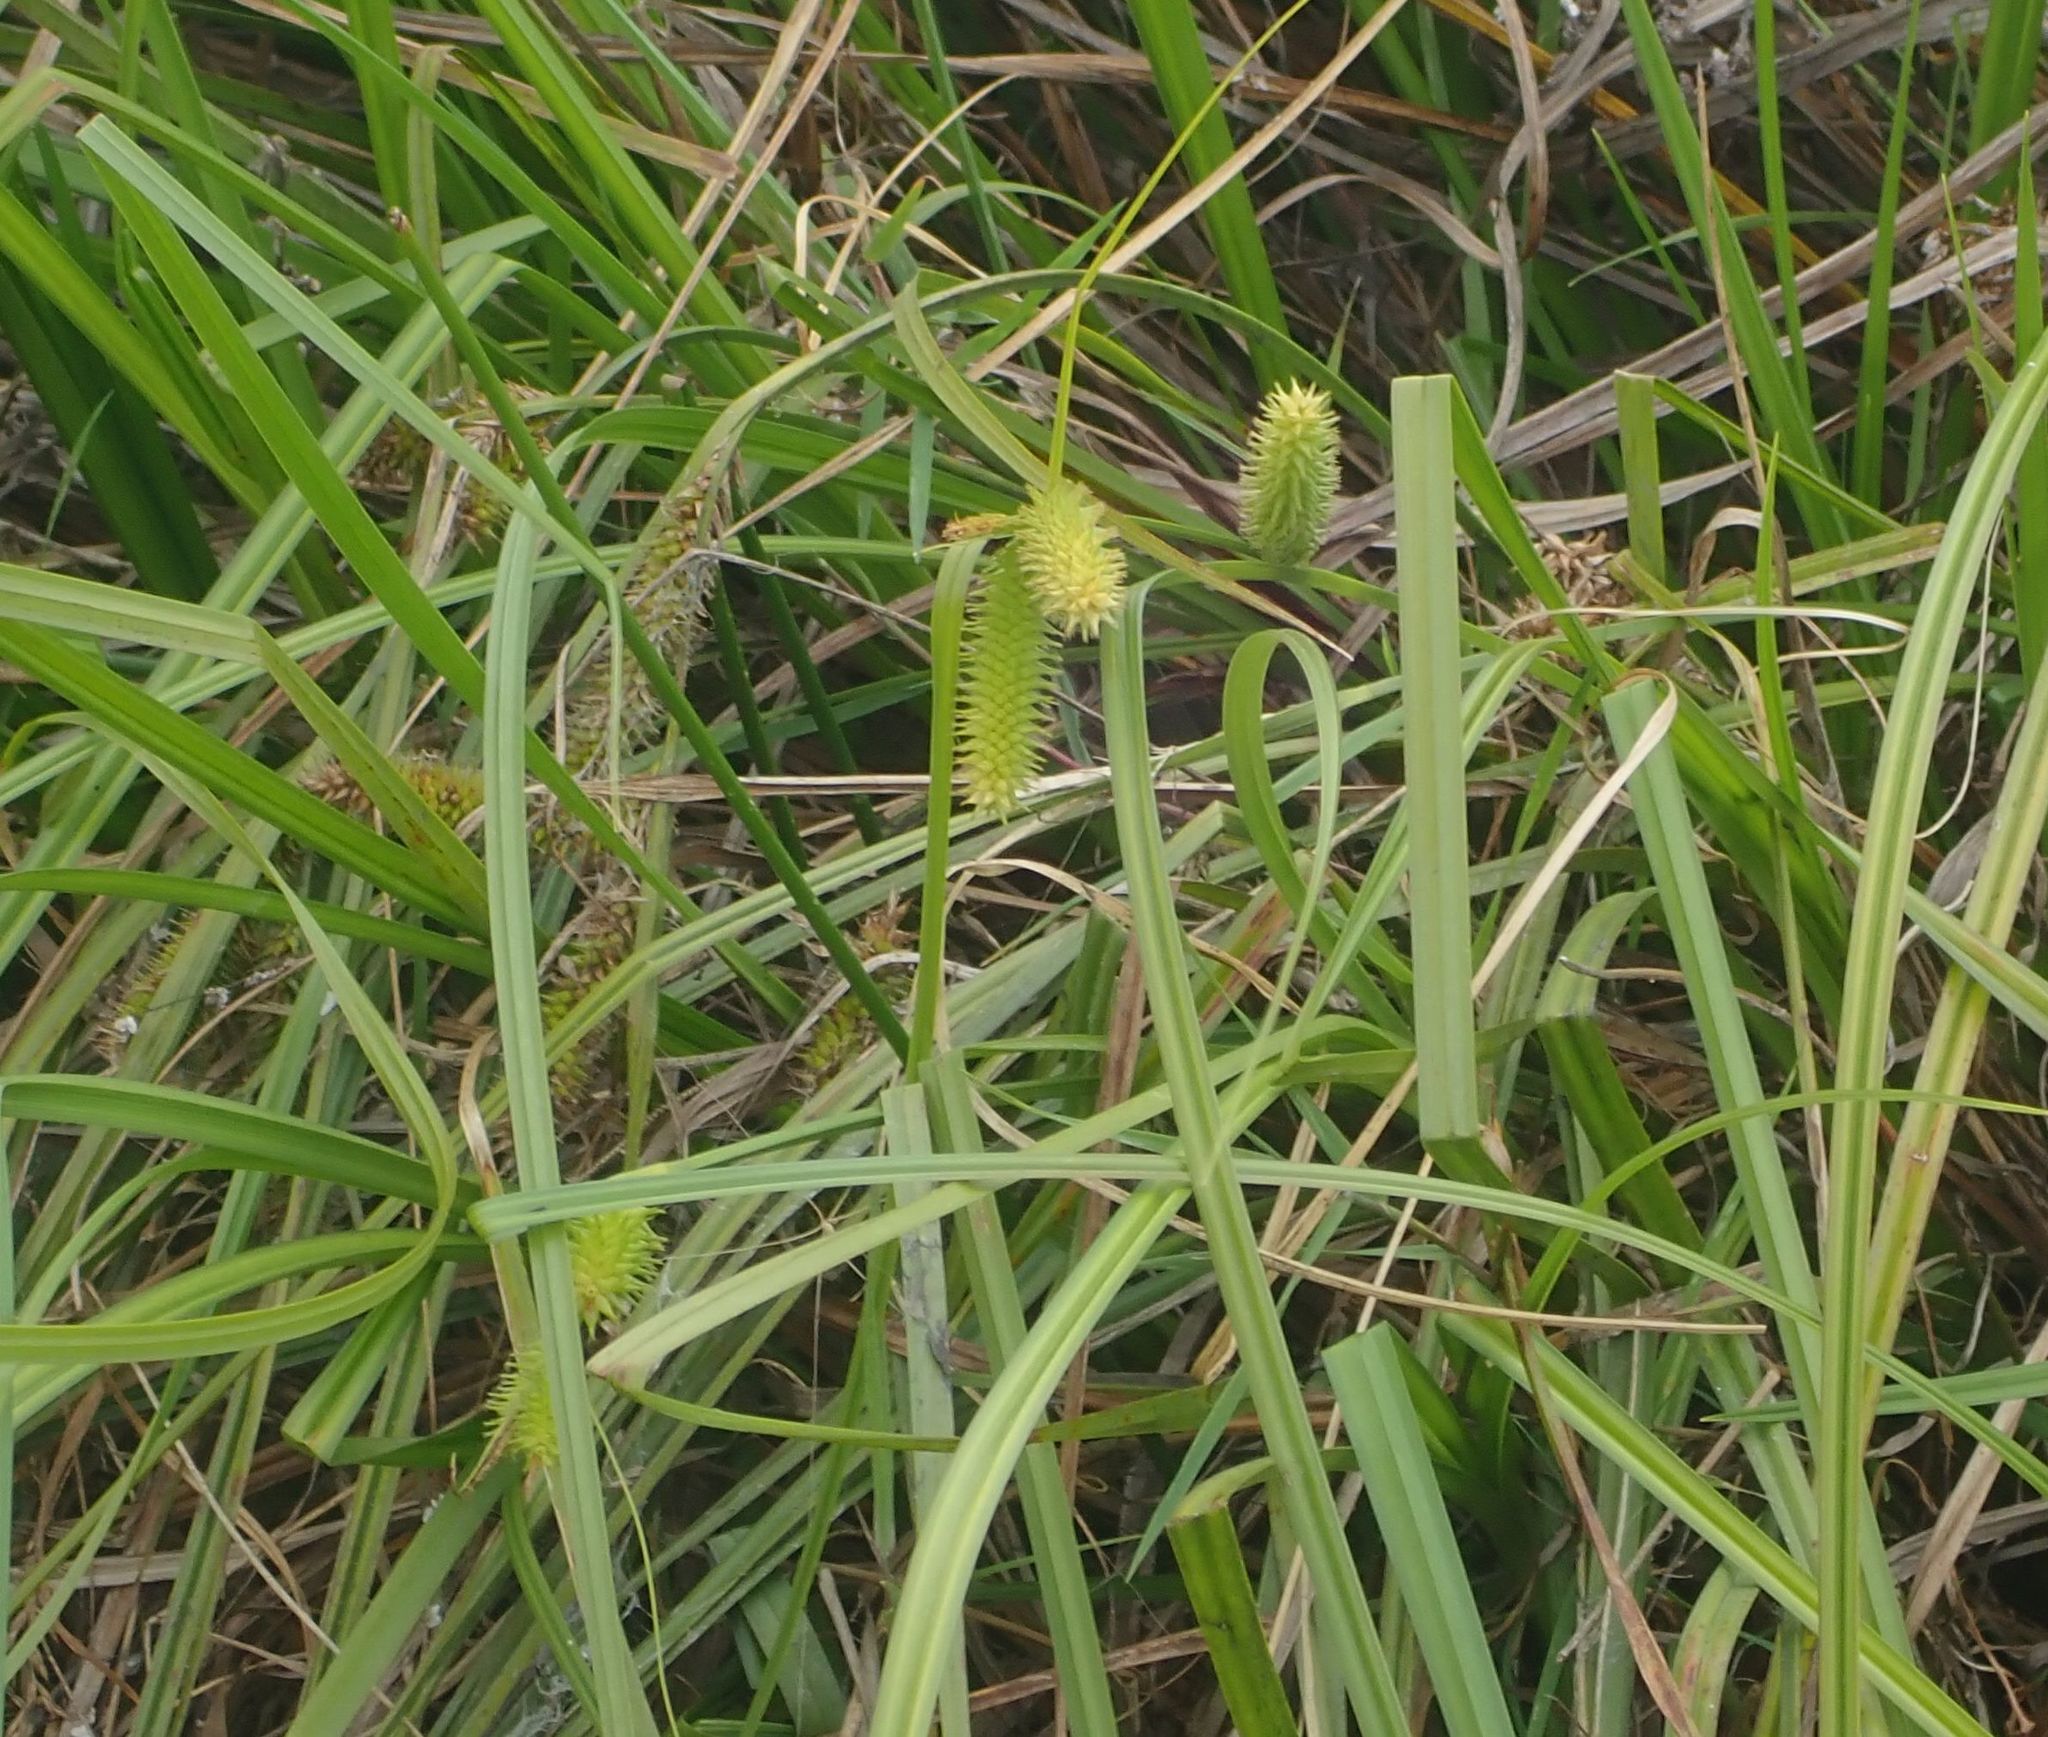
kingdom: Plantae
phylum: Tracheophyta
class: Liliopsida
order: Poales
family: Cyperaceae
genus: Carex
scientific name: Carex maorica
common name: Maori sedge
